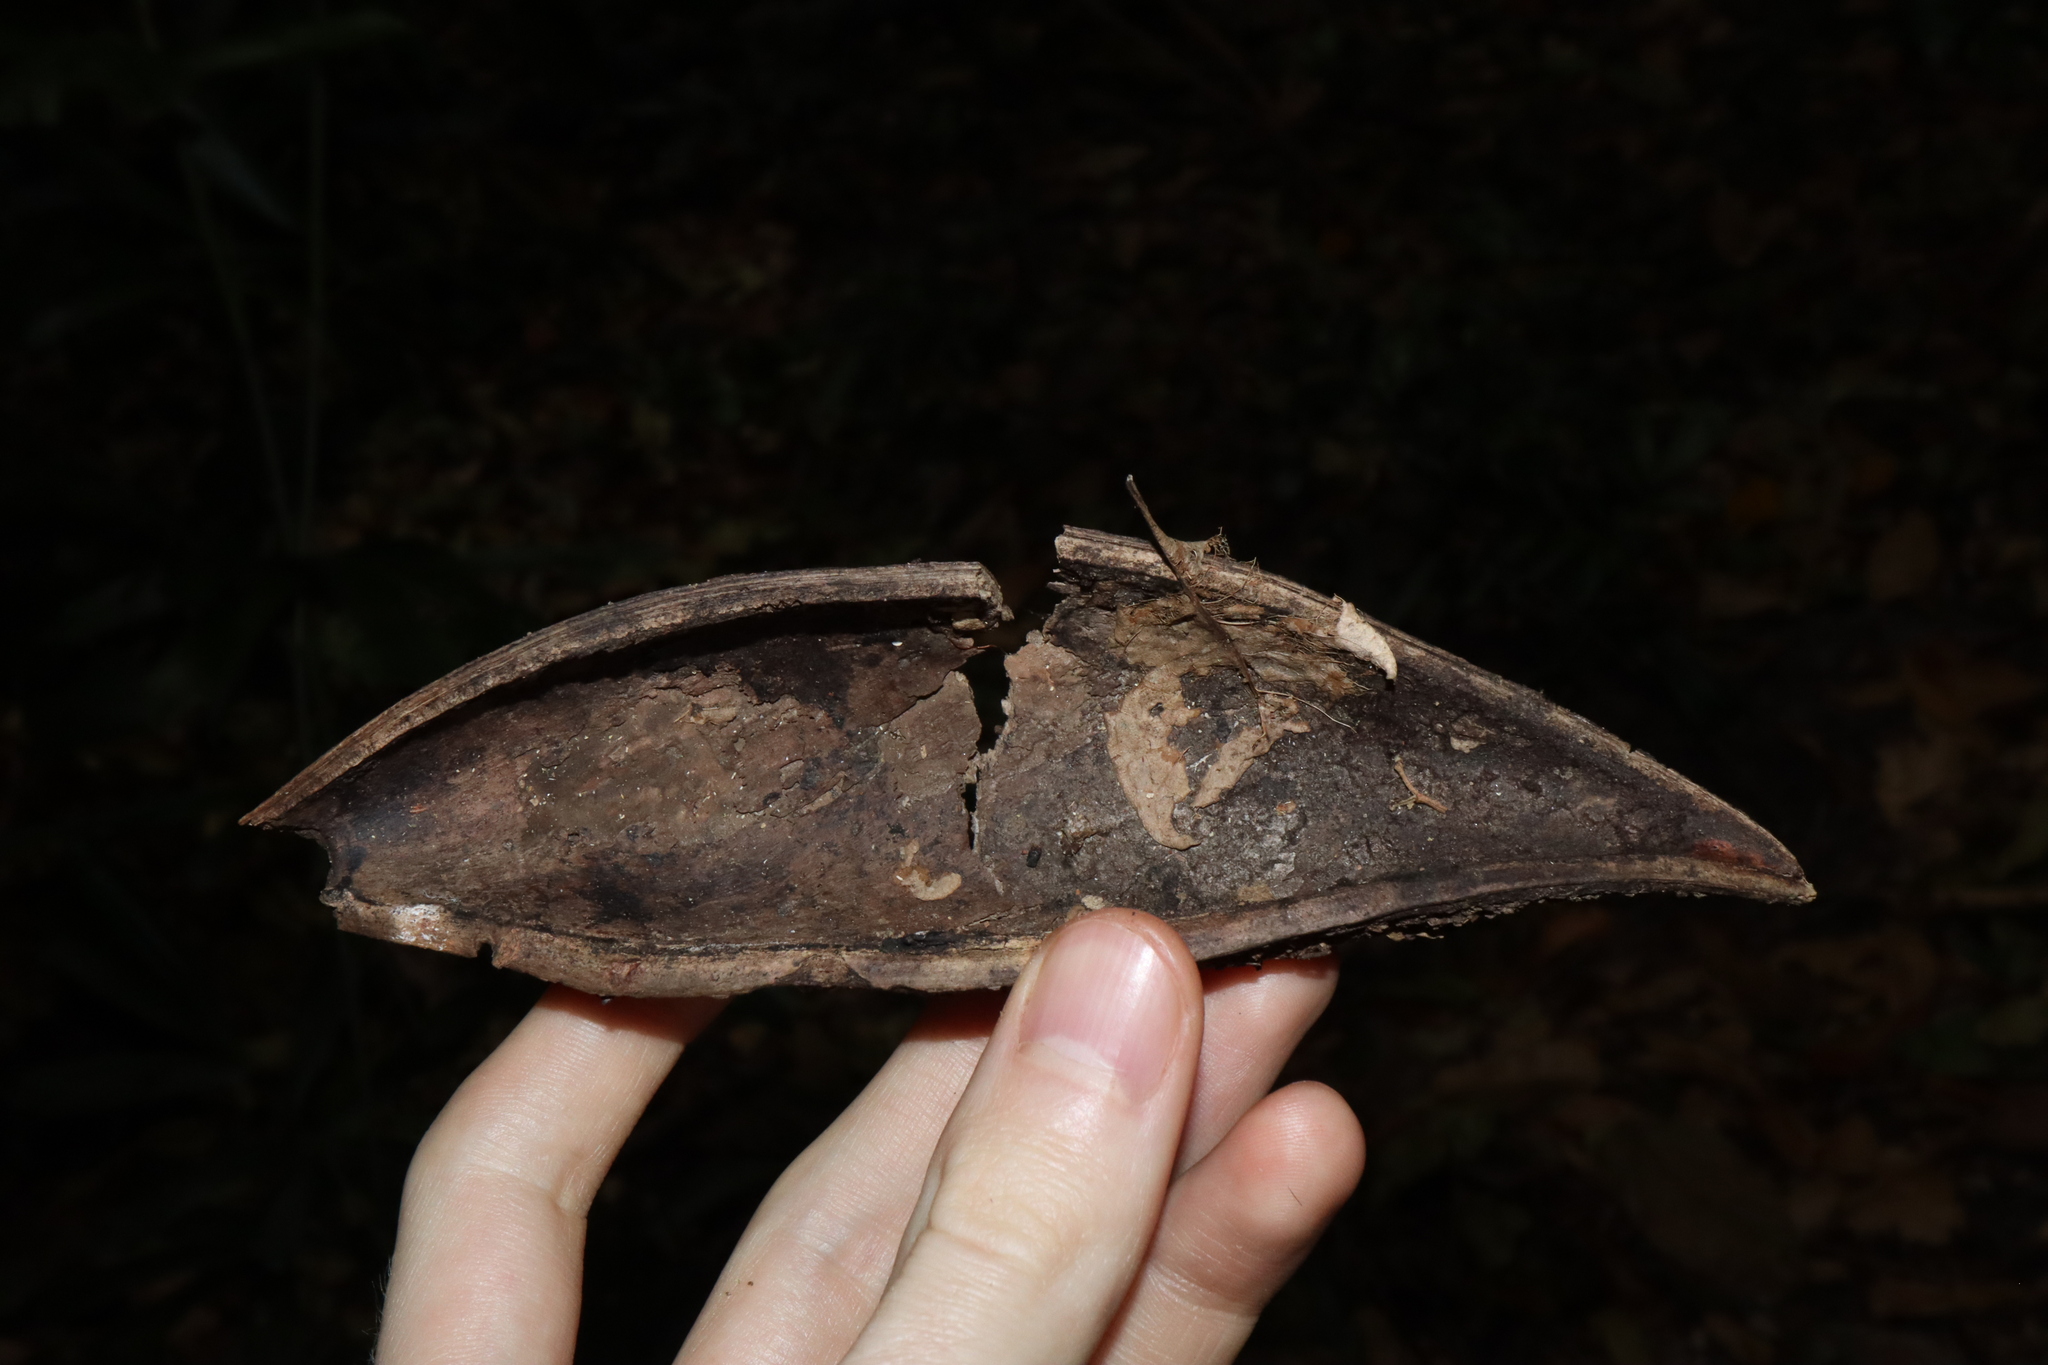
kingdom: Plantae
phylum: Tracheophyta
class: Magnoliopsida
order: Fabales
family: Fabaceae
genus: Castanospermum
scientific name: Castanospermum australe
